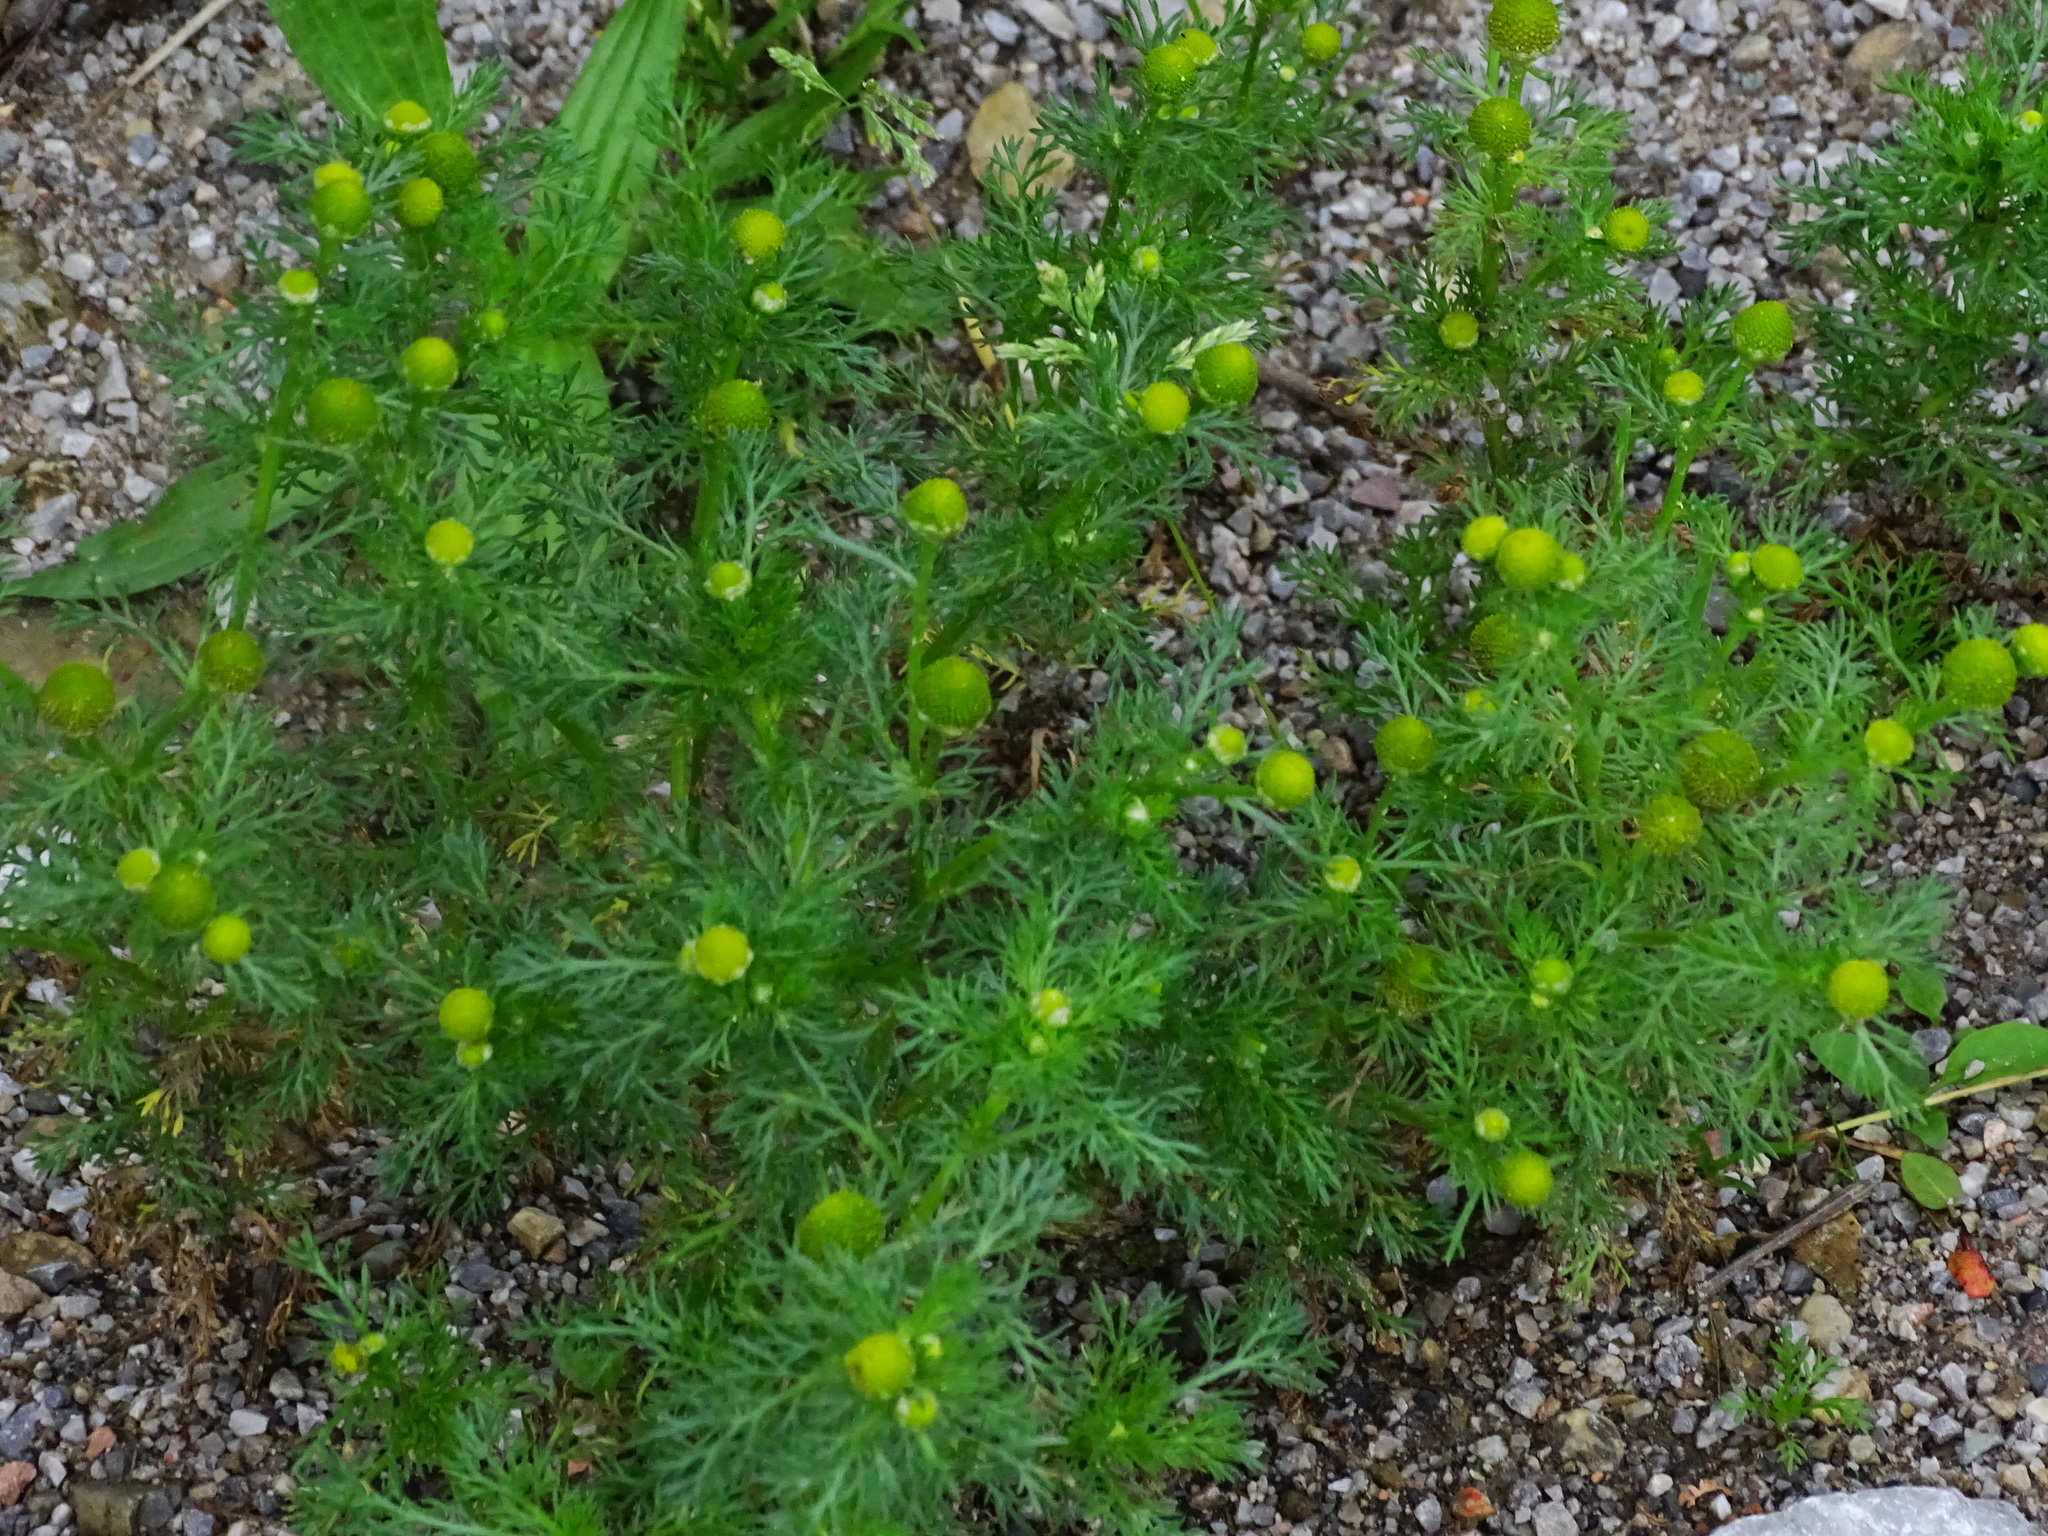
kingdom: Plantae
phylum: Tracheophyta
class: Magnoliopsida
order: Asterales
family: Asteraceae
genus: Matricaria
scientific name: Matricaria discoidea
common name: Disc mayweed
